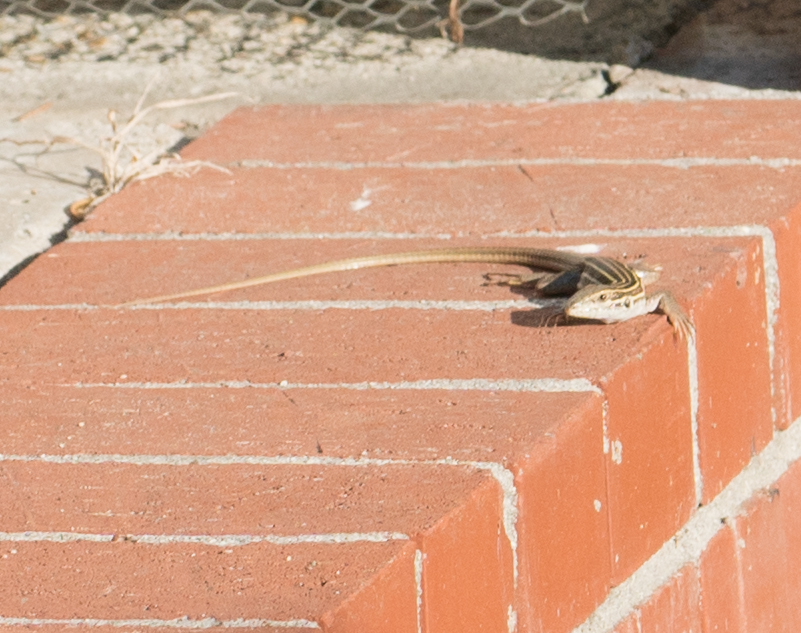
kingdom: Animalia
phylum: Chordata
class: Squamata
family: Teiidae
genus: Aspidoscelis
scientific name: Aspidoscelis sonorae
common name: Sonoran spotted whiptail
